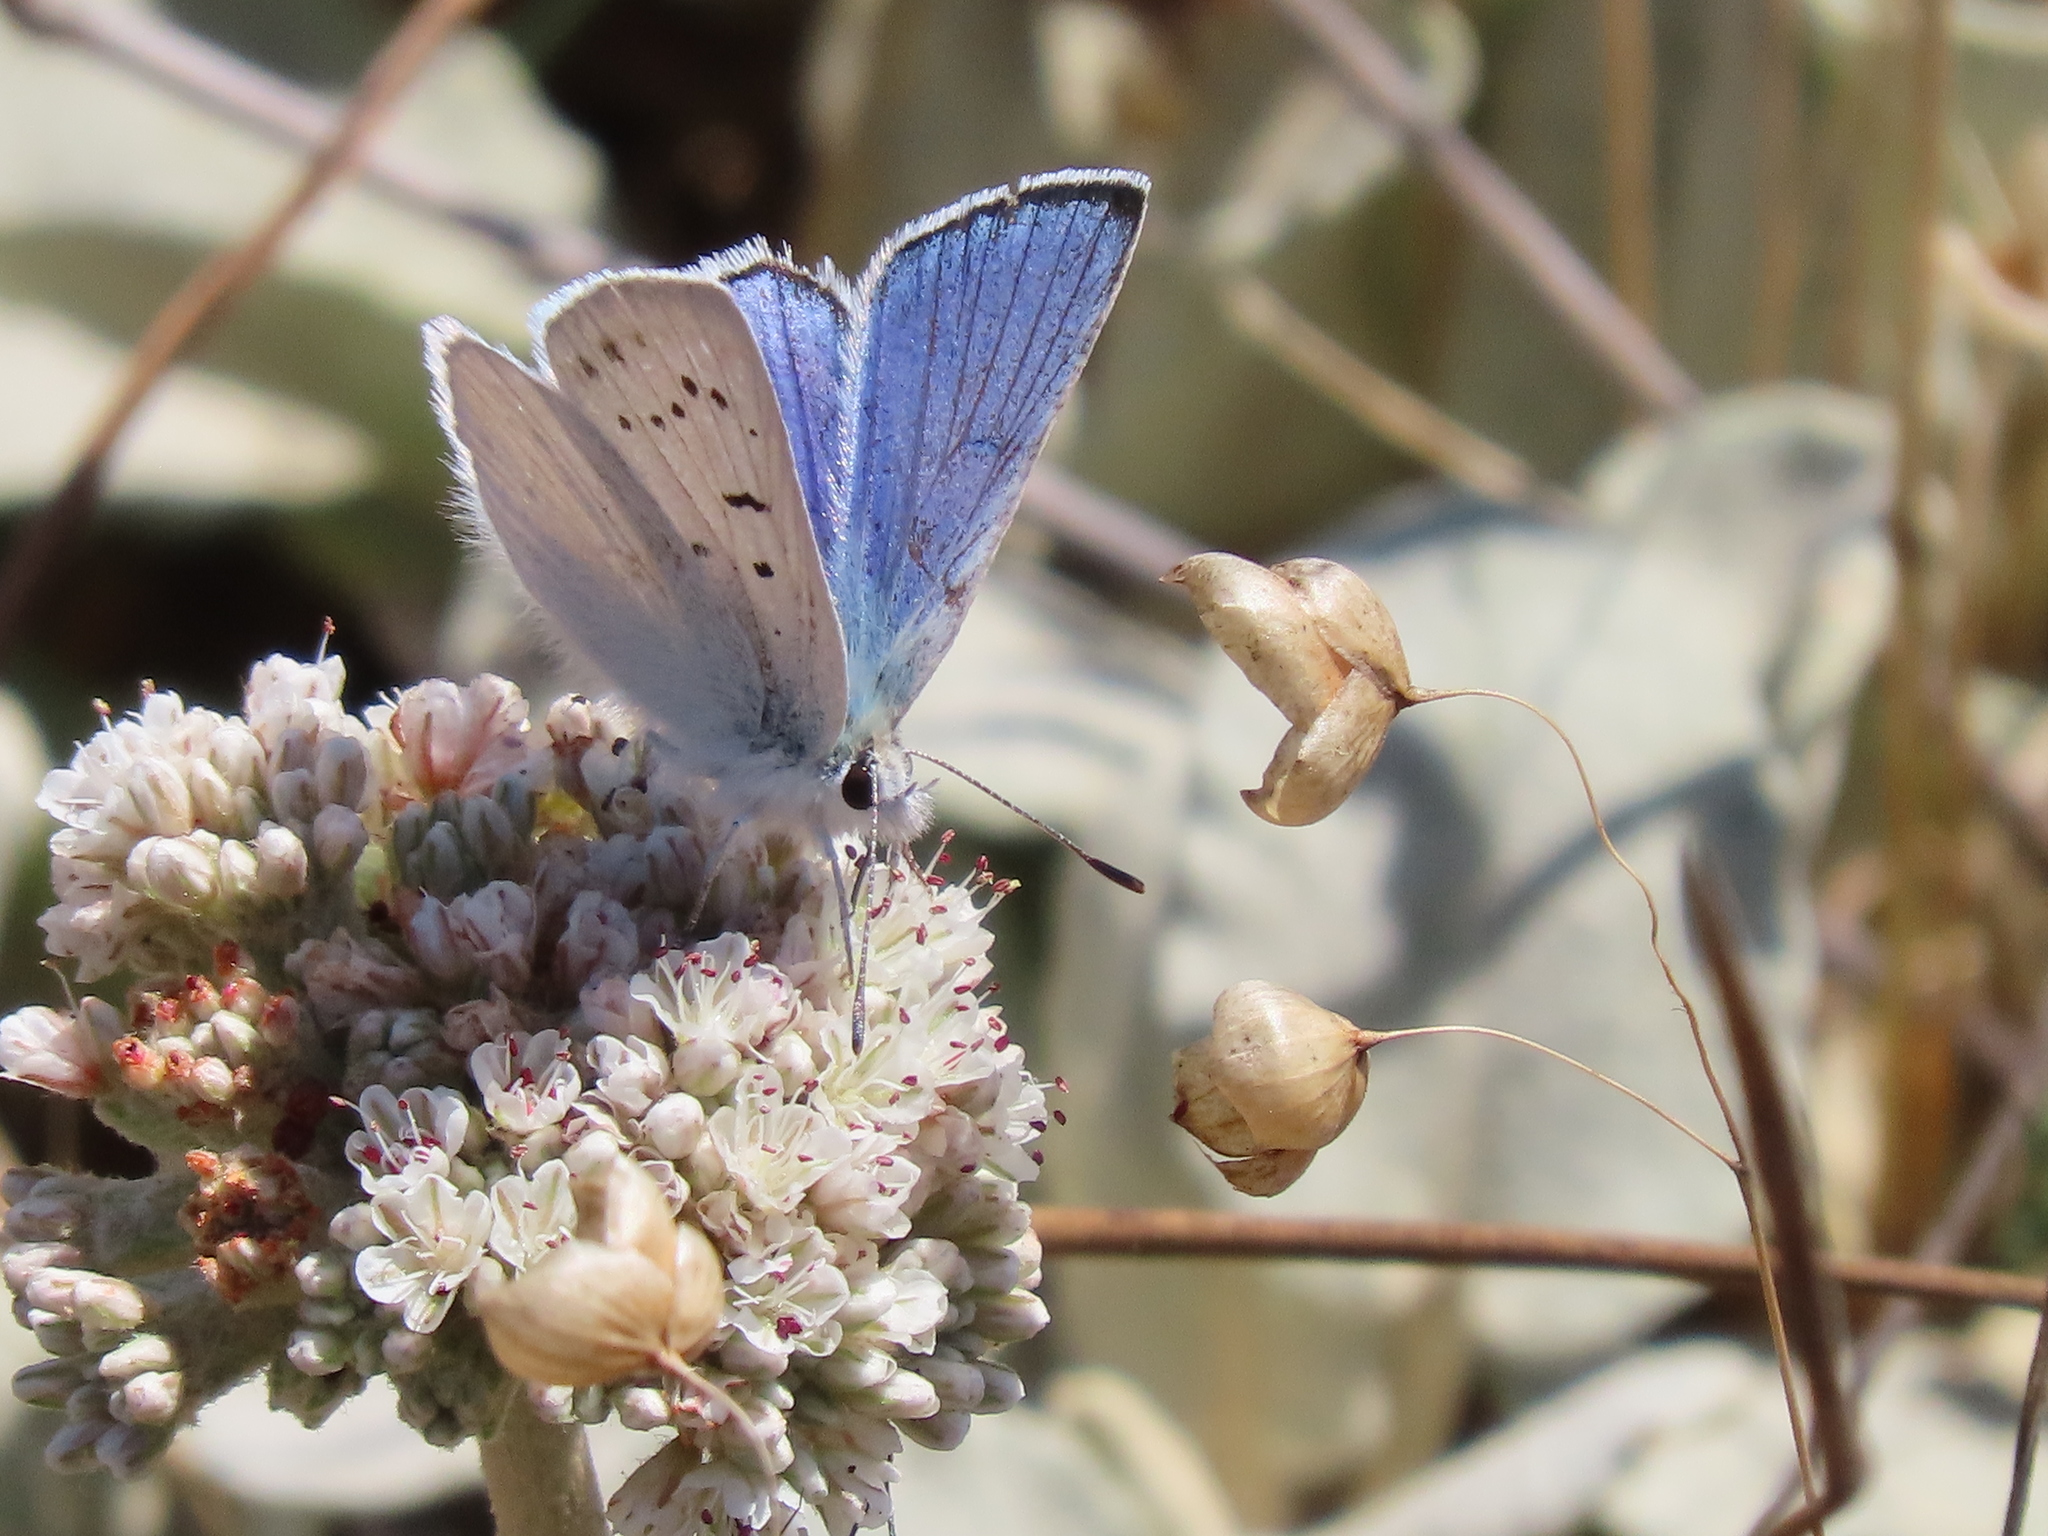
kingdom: Animalia
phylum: Arthropoda
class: Insecta
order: Lepidoptera
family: Lycaenidae
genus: Tharsalea
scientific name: Tharsalea heteronea
